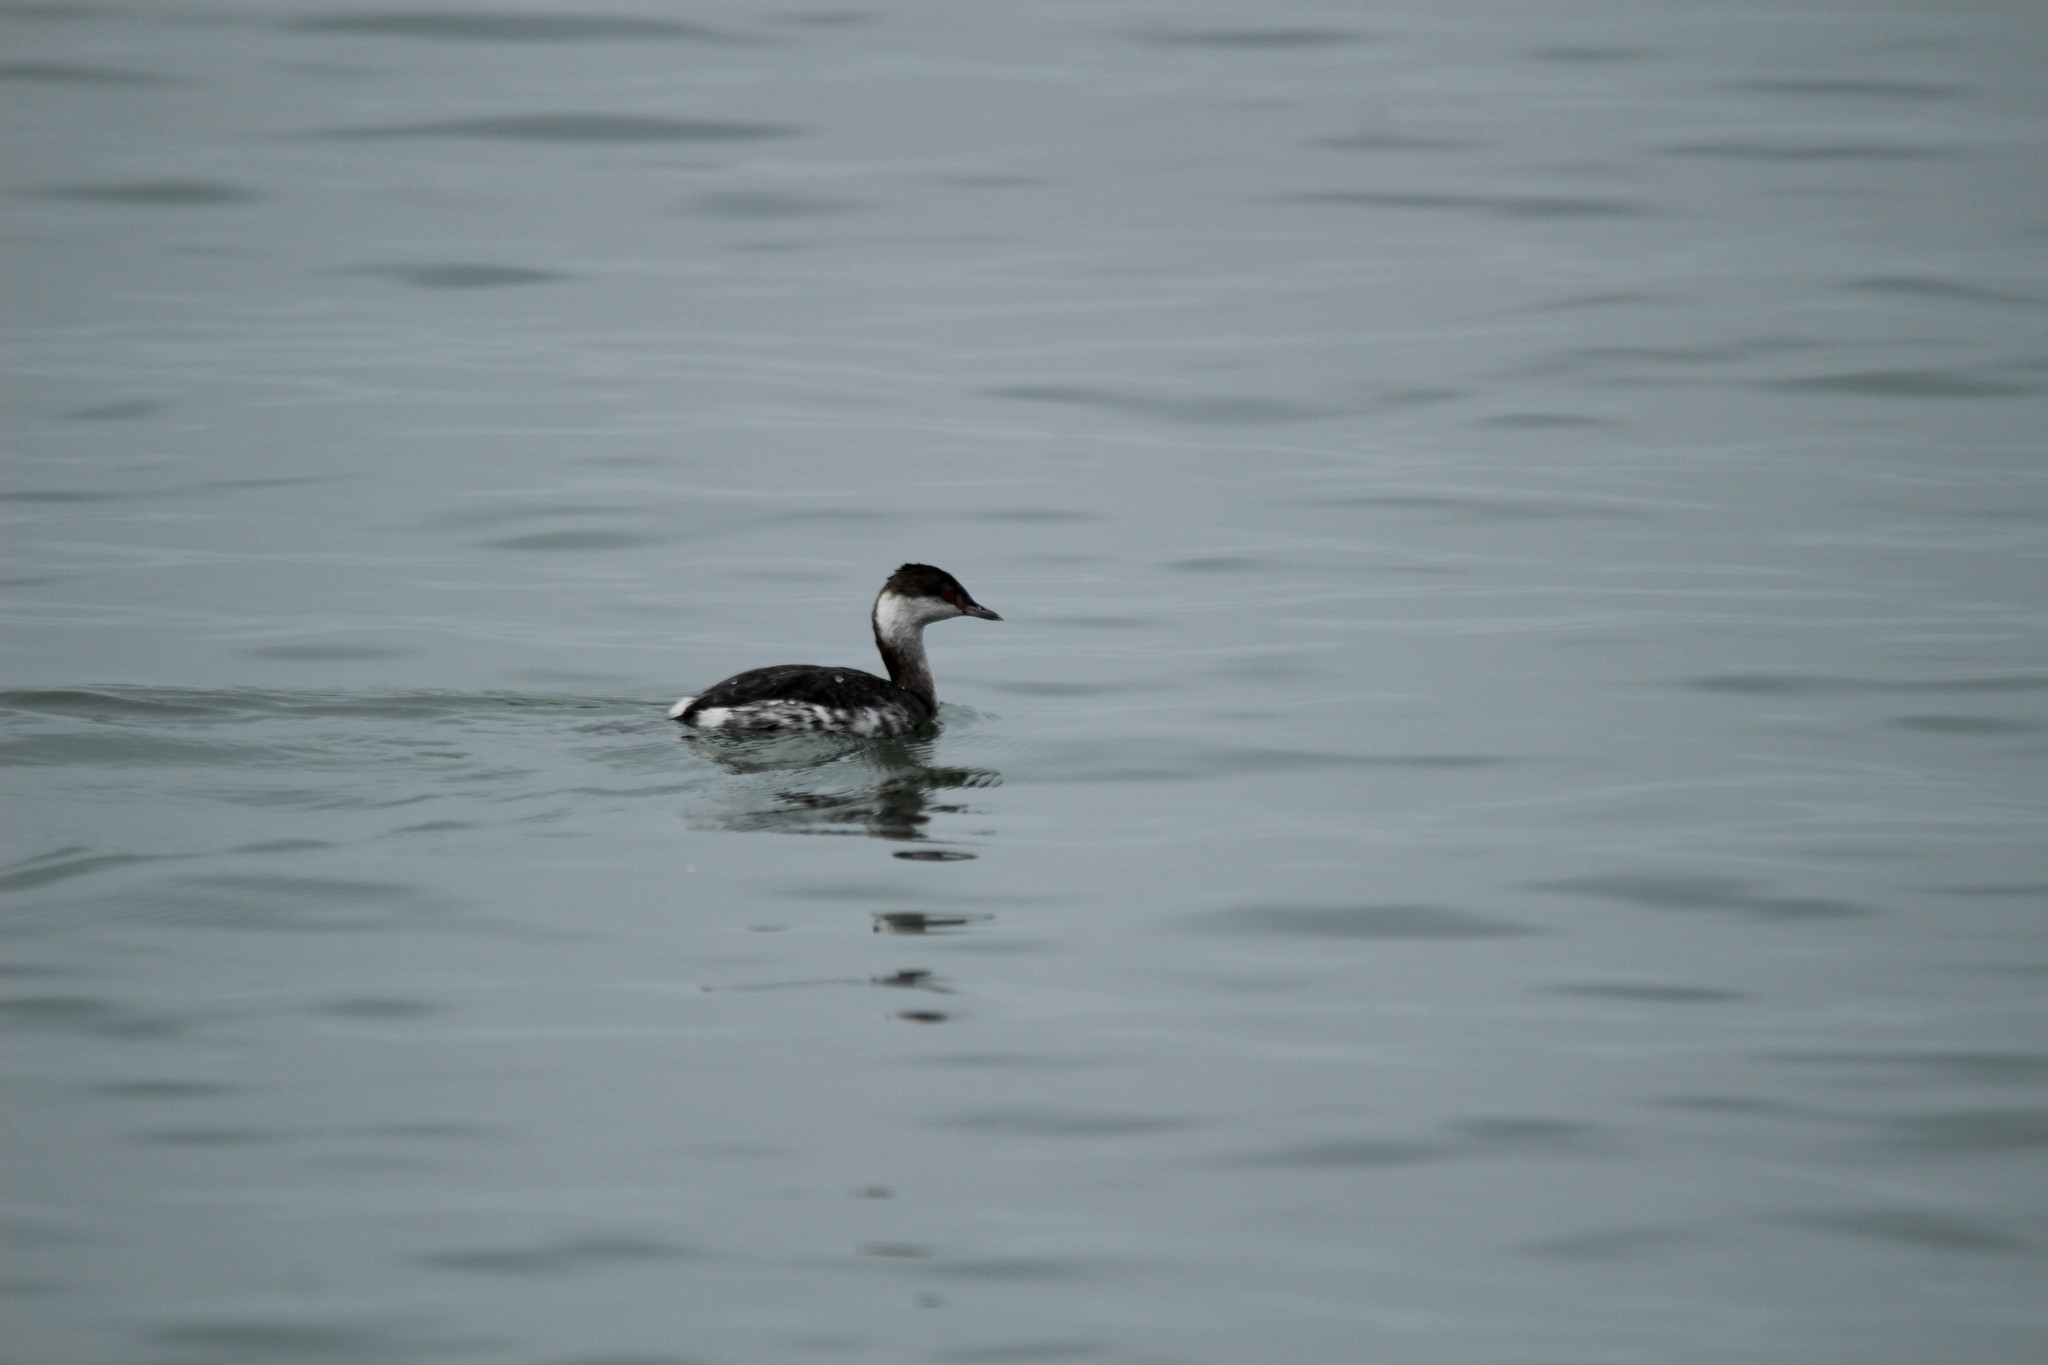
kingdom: Animalia
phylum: Chordata
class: Aves
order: Podicipediformes
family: Podicipedidae
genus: Podiceps
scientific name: Podiceps auritus
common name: Horned grebe
